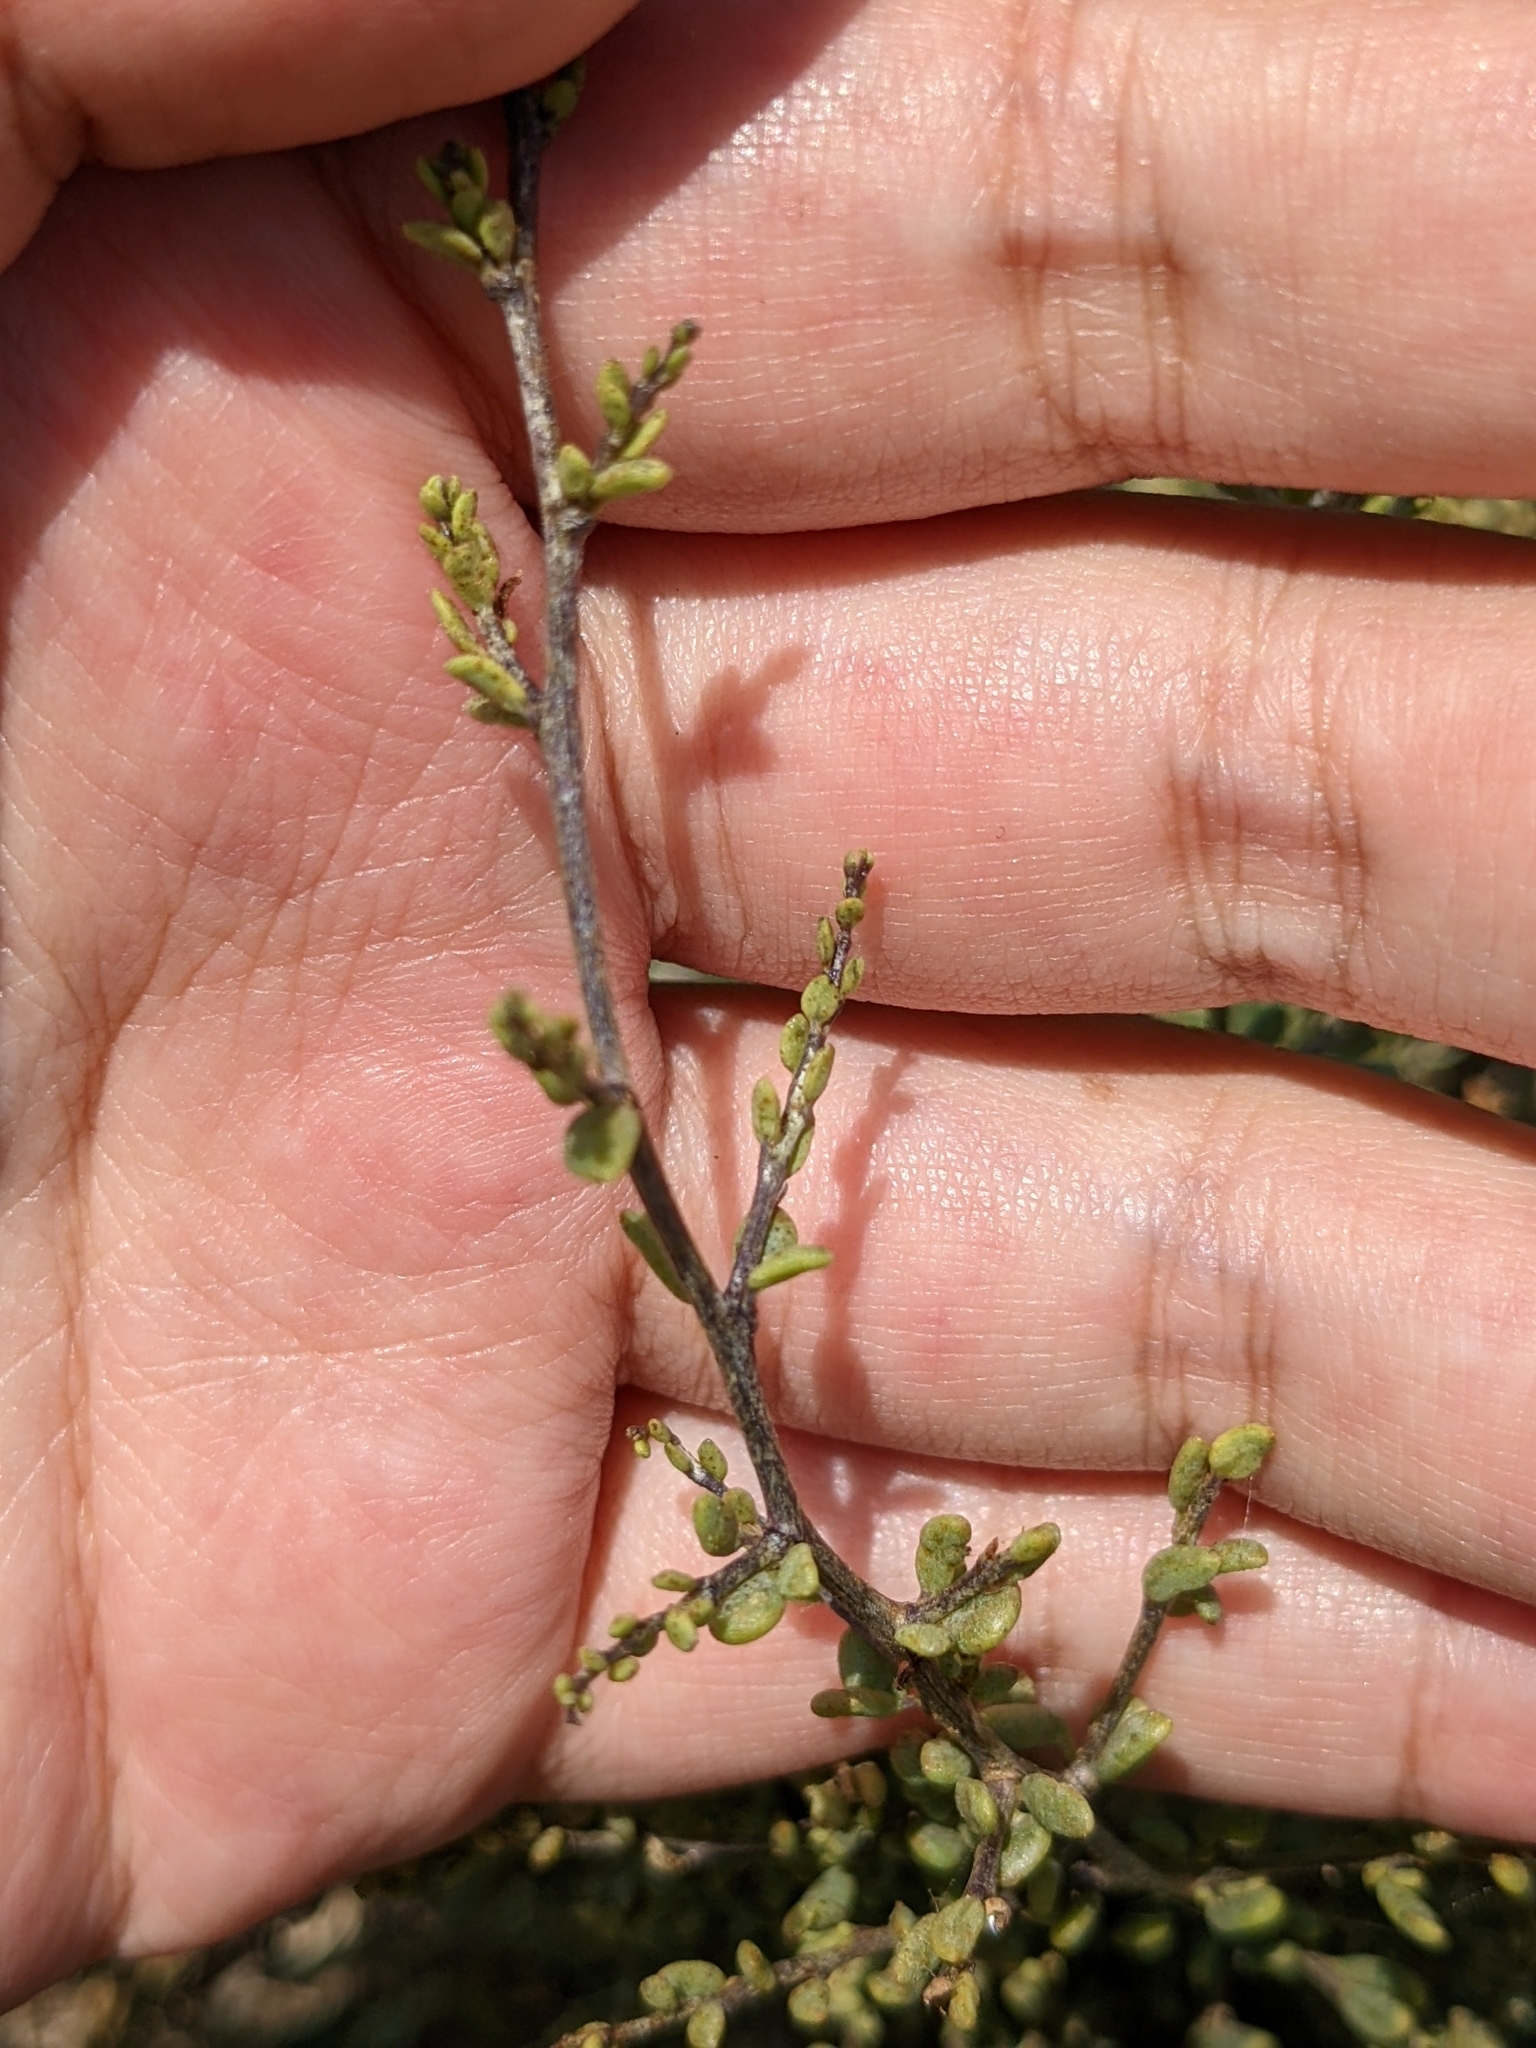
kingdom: Plantae
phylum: Tracheophyta
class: Magnoliopsida
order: Solanales
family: Solanaceae
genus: Lycium
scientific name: Lycium californicum
